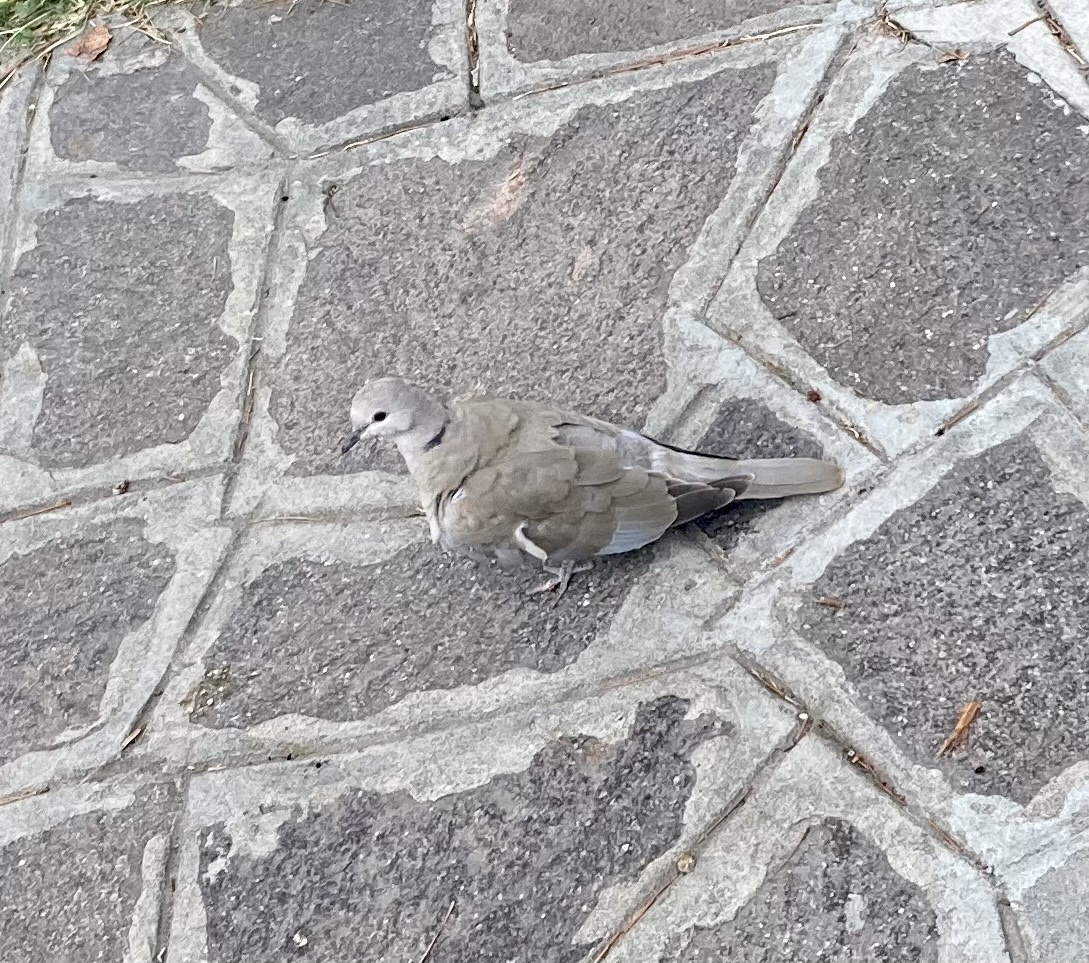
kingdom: Animalia
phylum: Chordata
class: Aves
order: Columbiformes
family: Columbidae
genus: Streptopelia
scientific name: Streptopelia decaocto
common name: Eurasian collared dove
